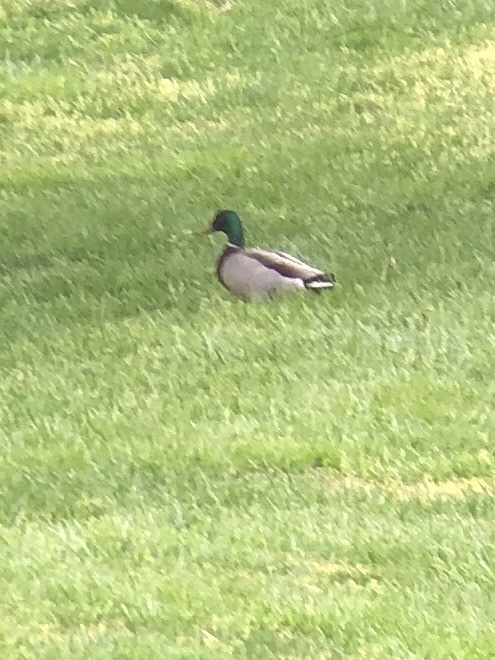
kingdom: Animalia
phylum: Chordata
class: Aves
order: Anseriformes
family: Anatidae
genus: Anas
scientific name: Anas platyrhynchos
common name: Mallard
